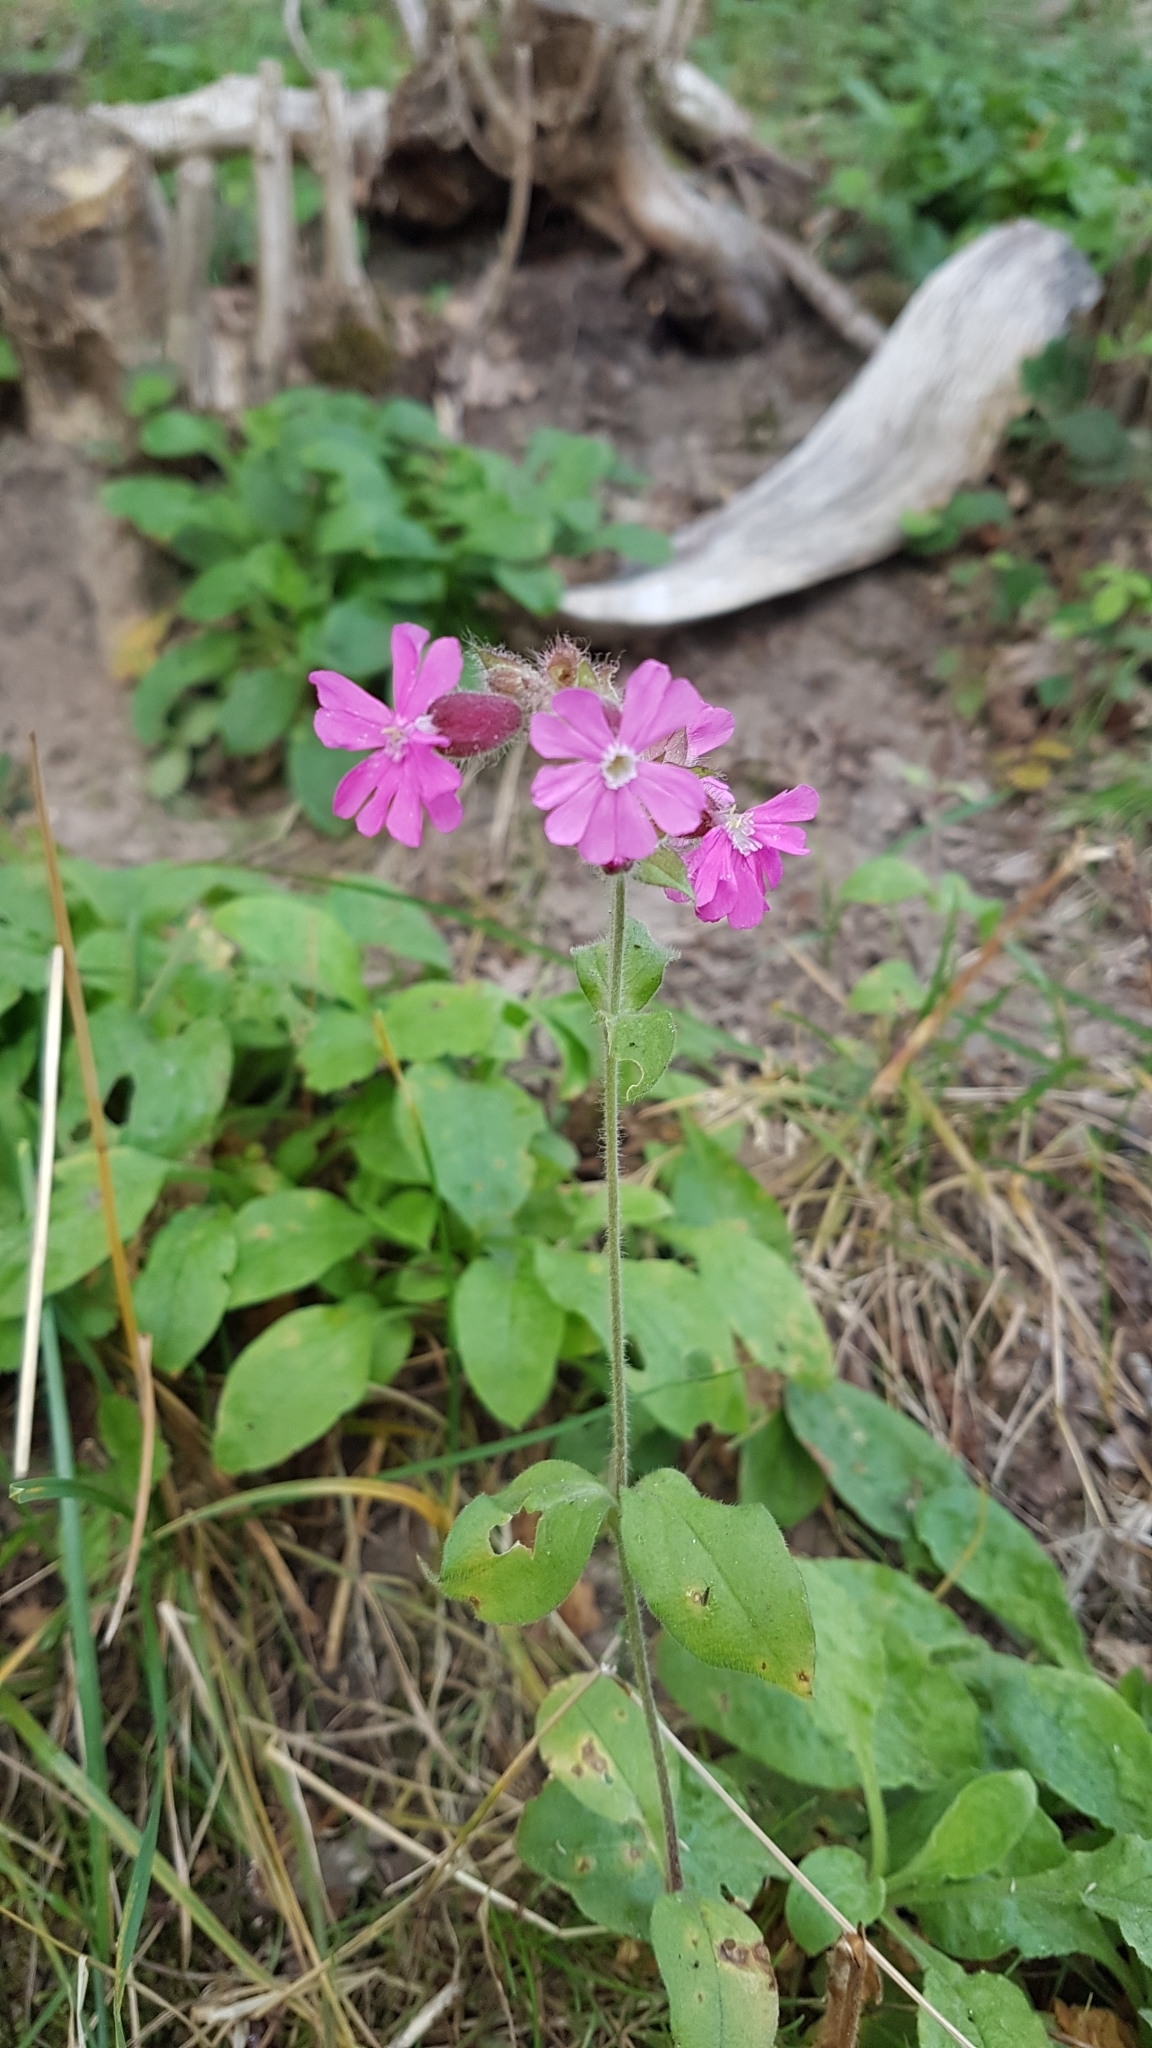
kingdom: Plantae
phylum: Tracheophyta
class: Magnoliopsida
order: Caryophyllales
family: Caryophyllaceae
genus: Silene
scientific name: Silene dioica
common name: Red campion
